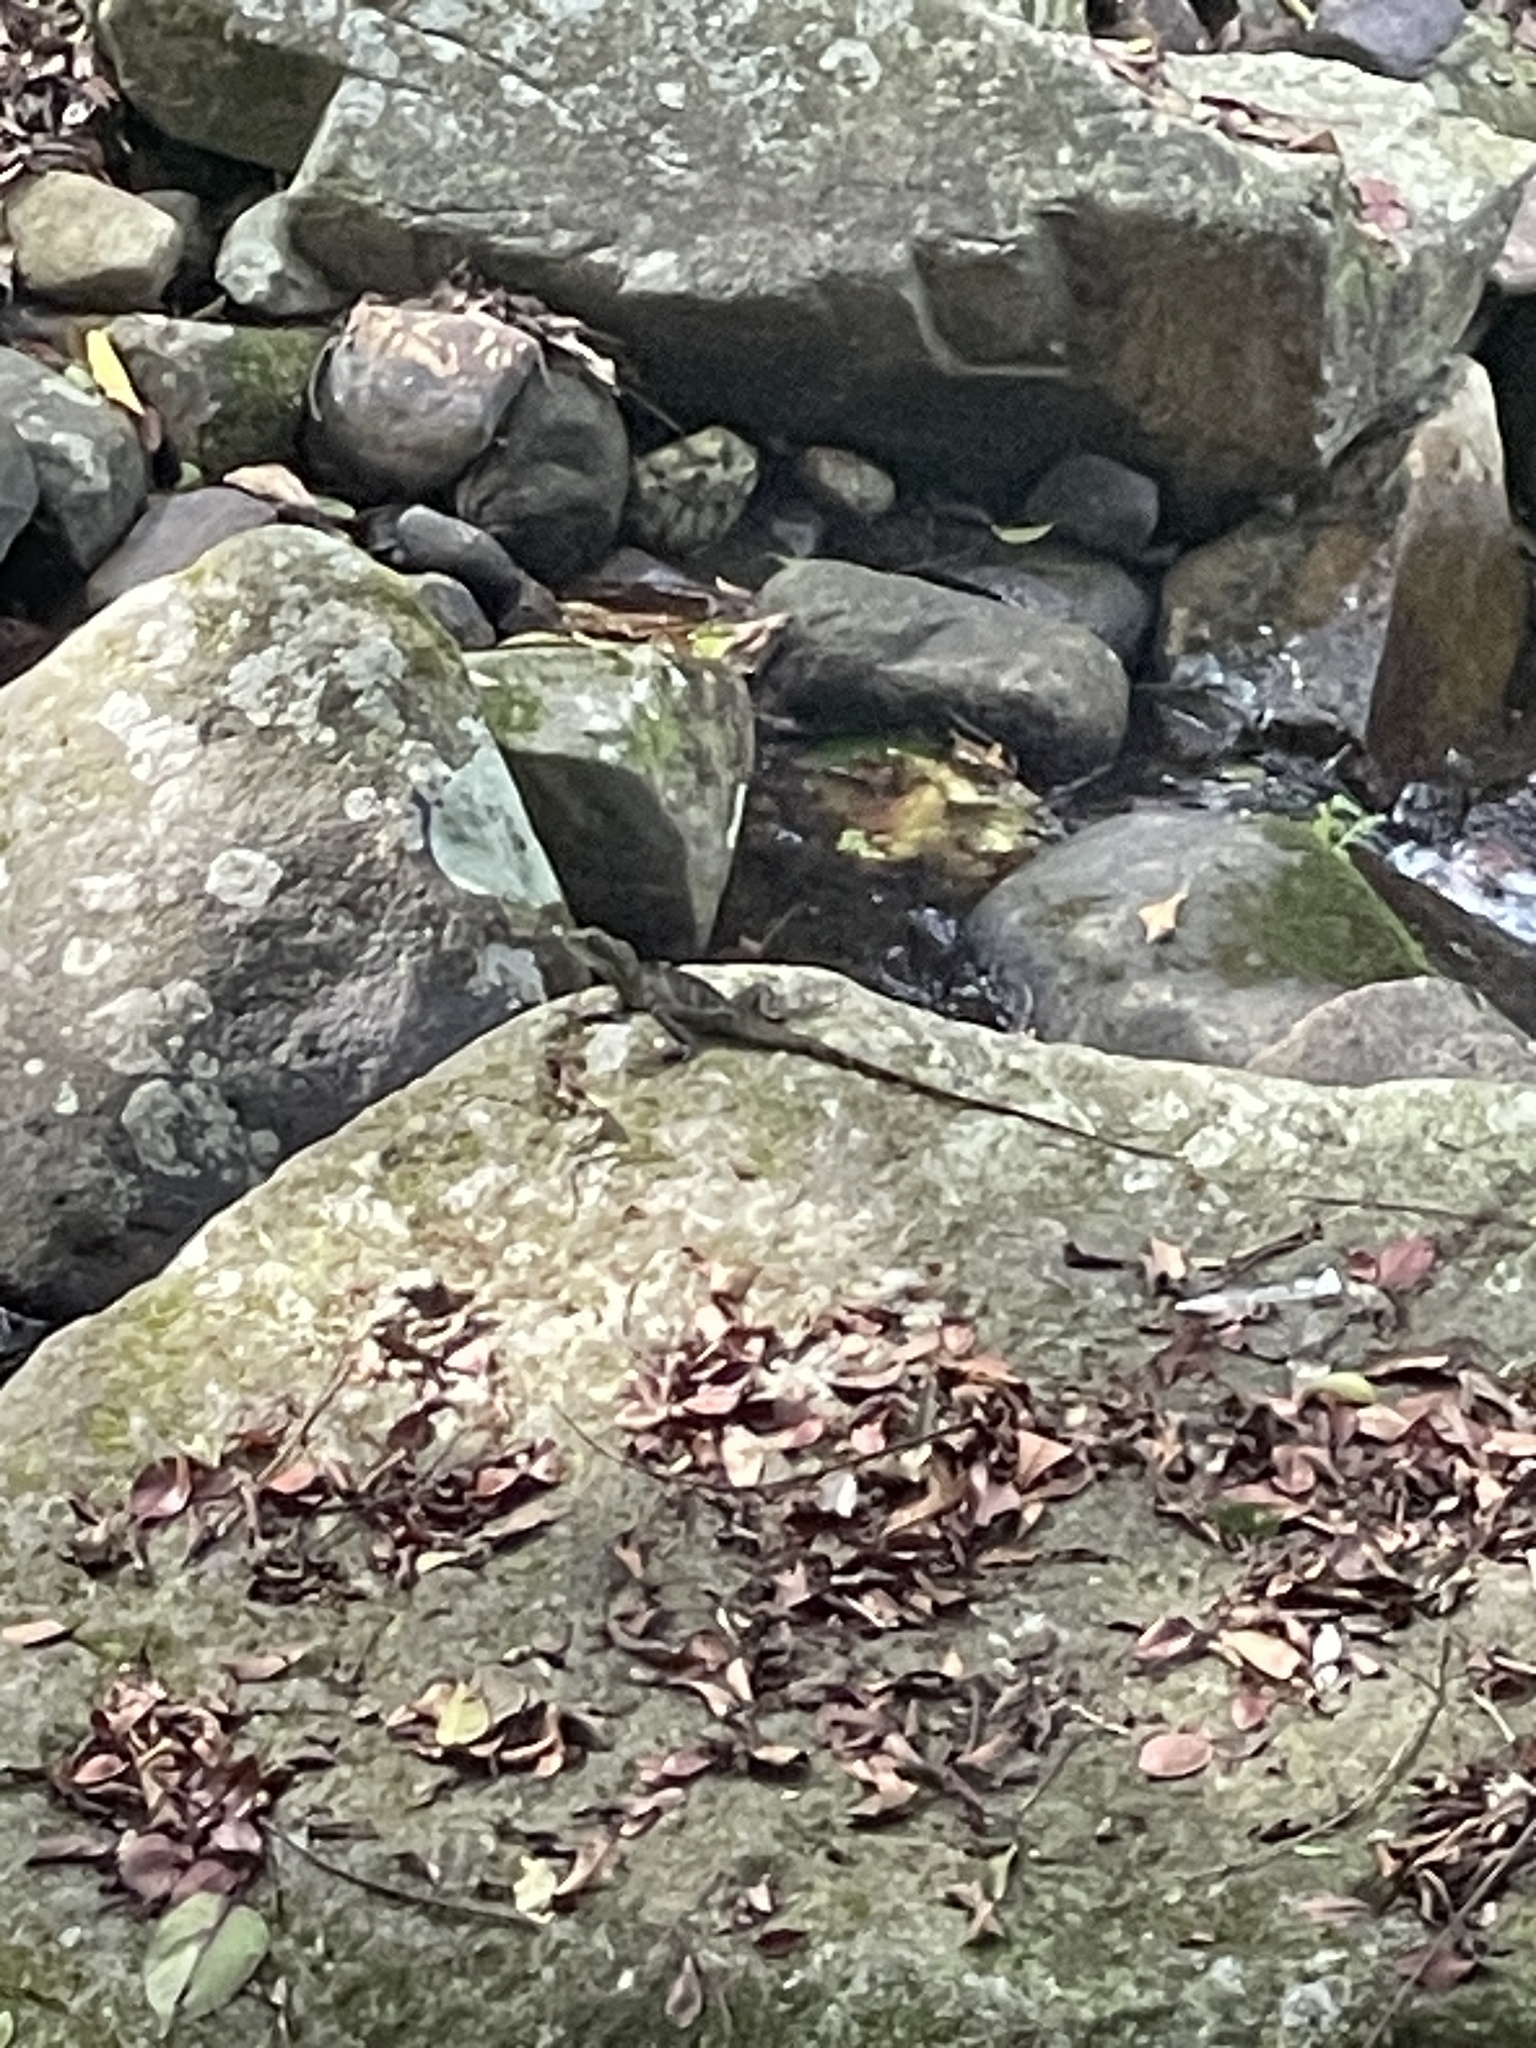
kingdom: Animalia
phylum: Chordata
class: Squamata
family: Agamidae
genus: Physignathus
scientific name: Physignathus cocincinus
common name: Asian water dragon
